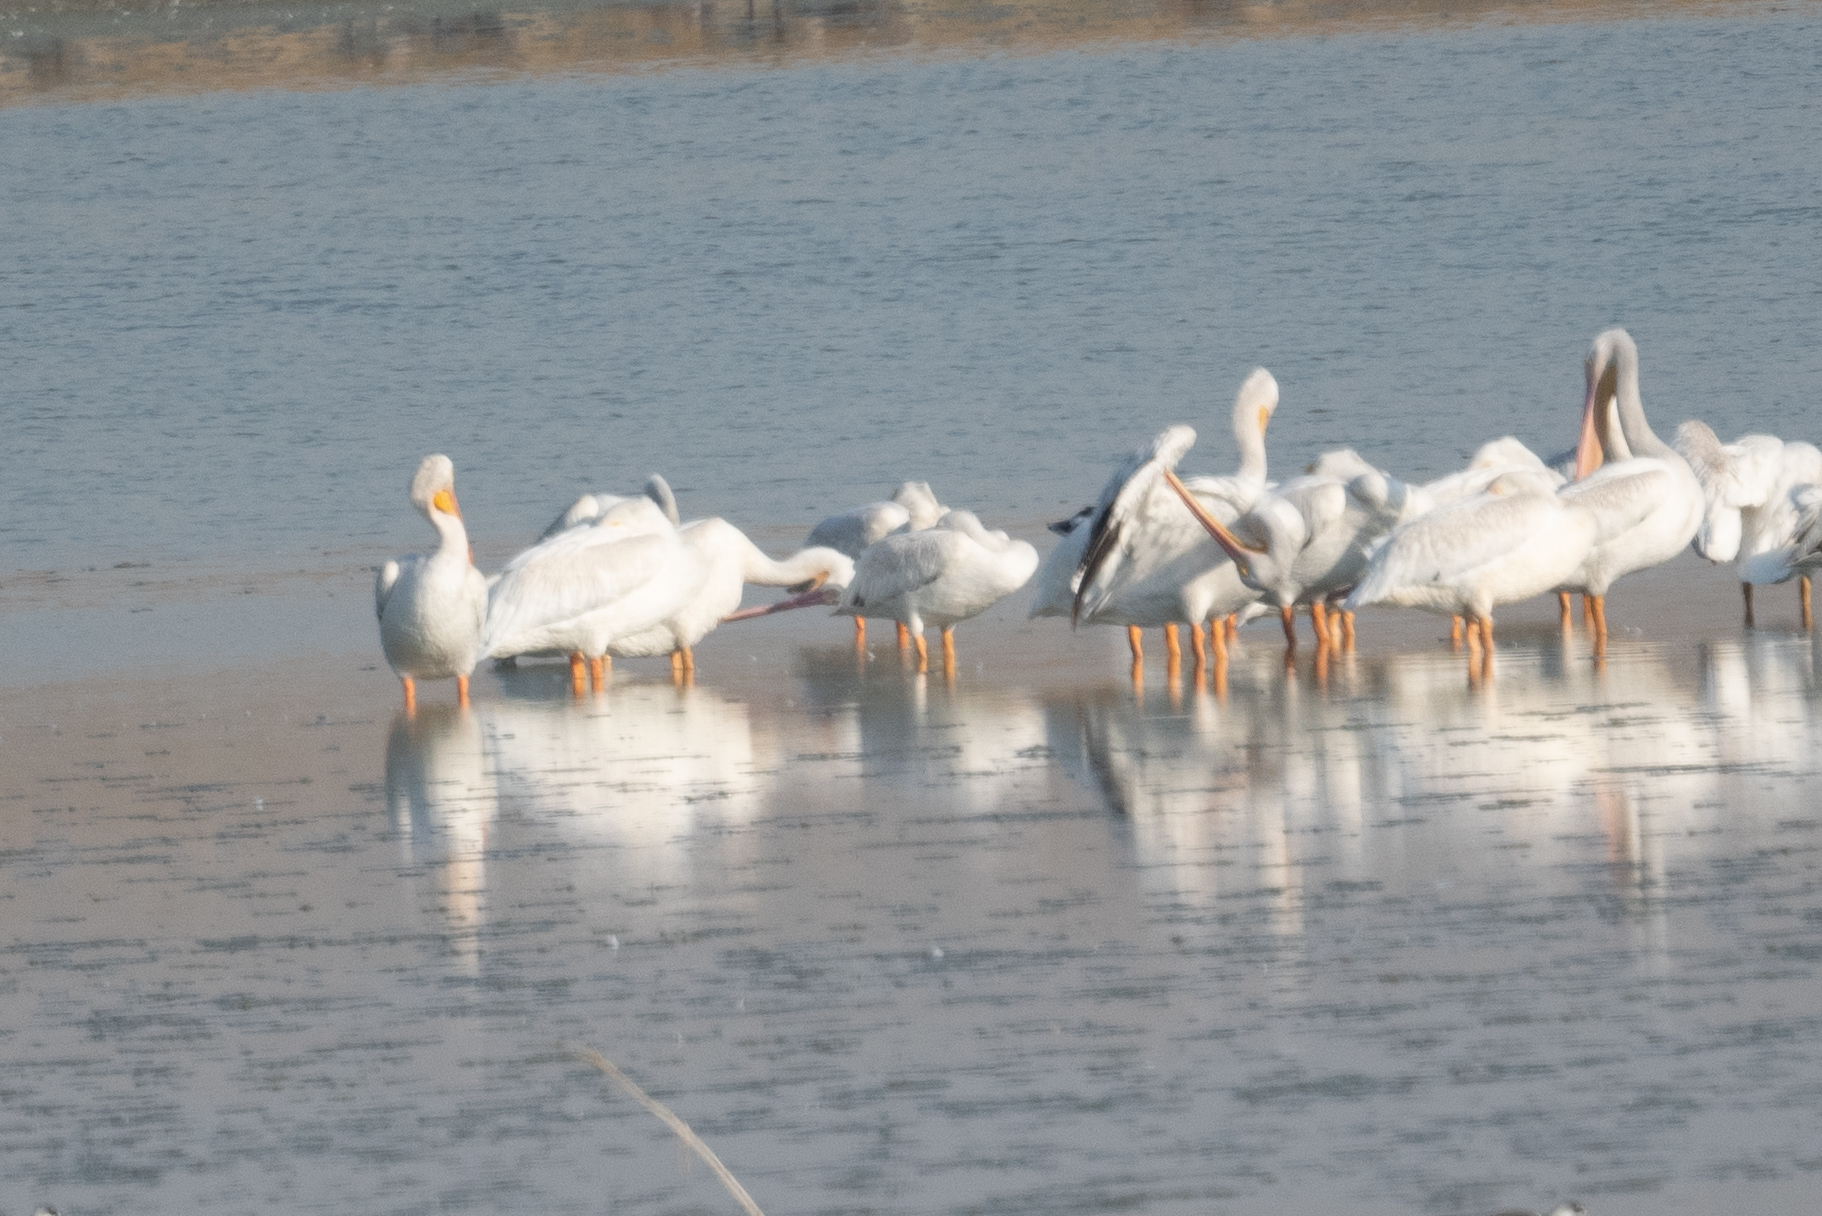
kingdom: Animalia
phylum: Chordata
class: Aves
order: Pelecaniformes
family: Pelecanidae
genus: Pelecanus
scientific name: Pelecanus erythrorhynchos
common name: American white pelican
